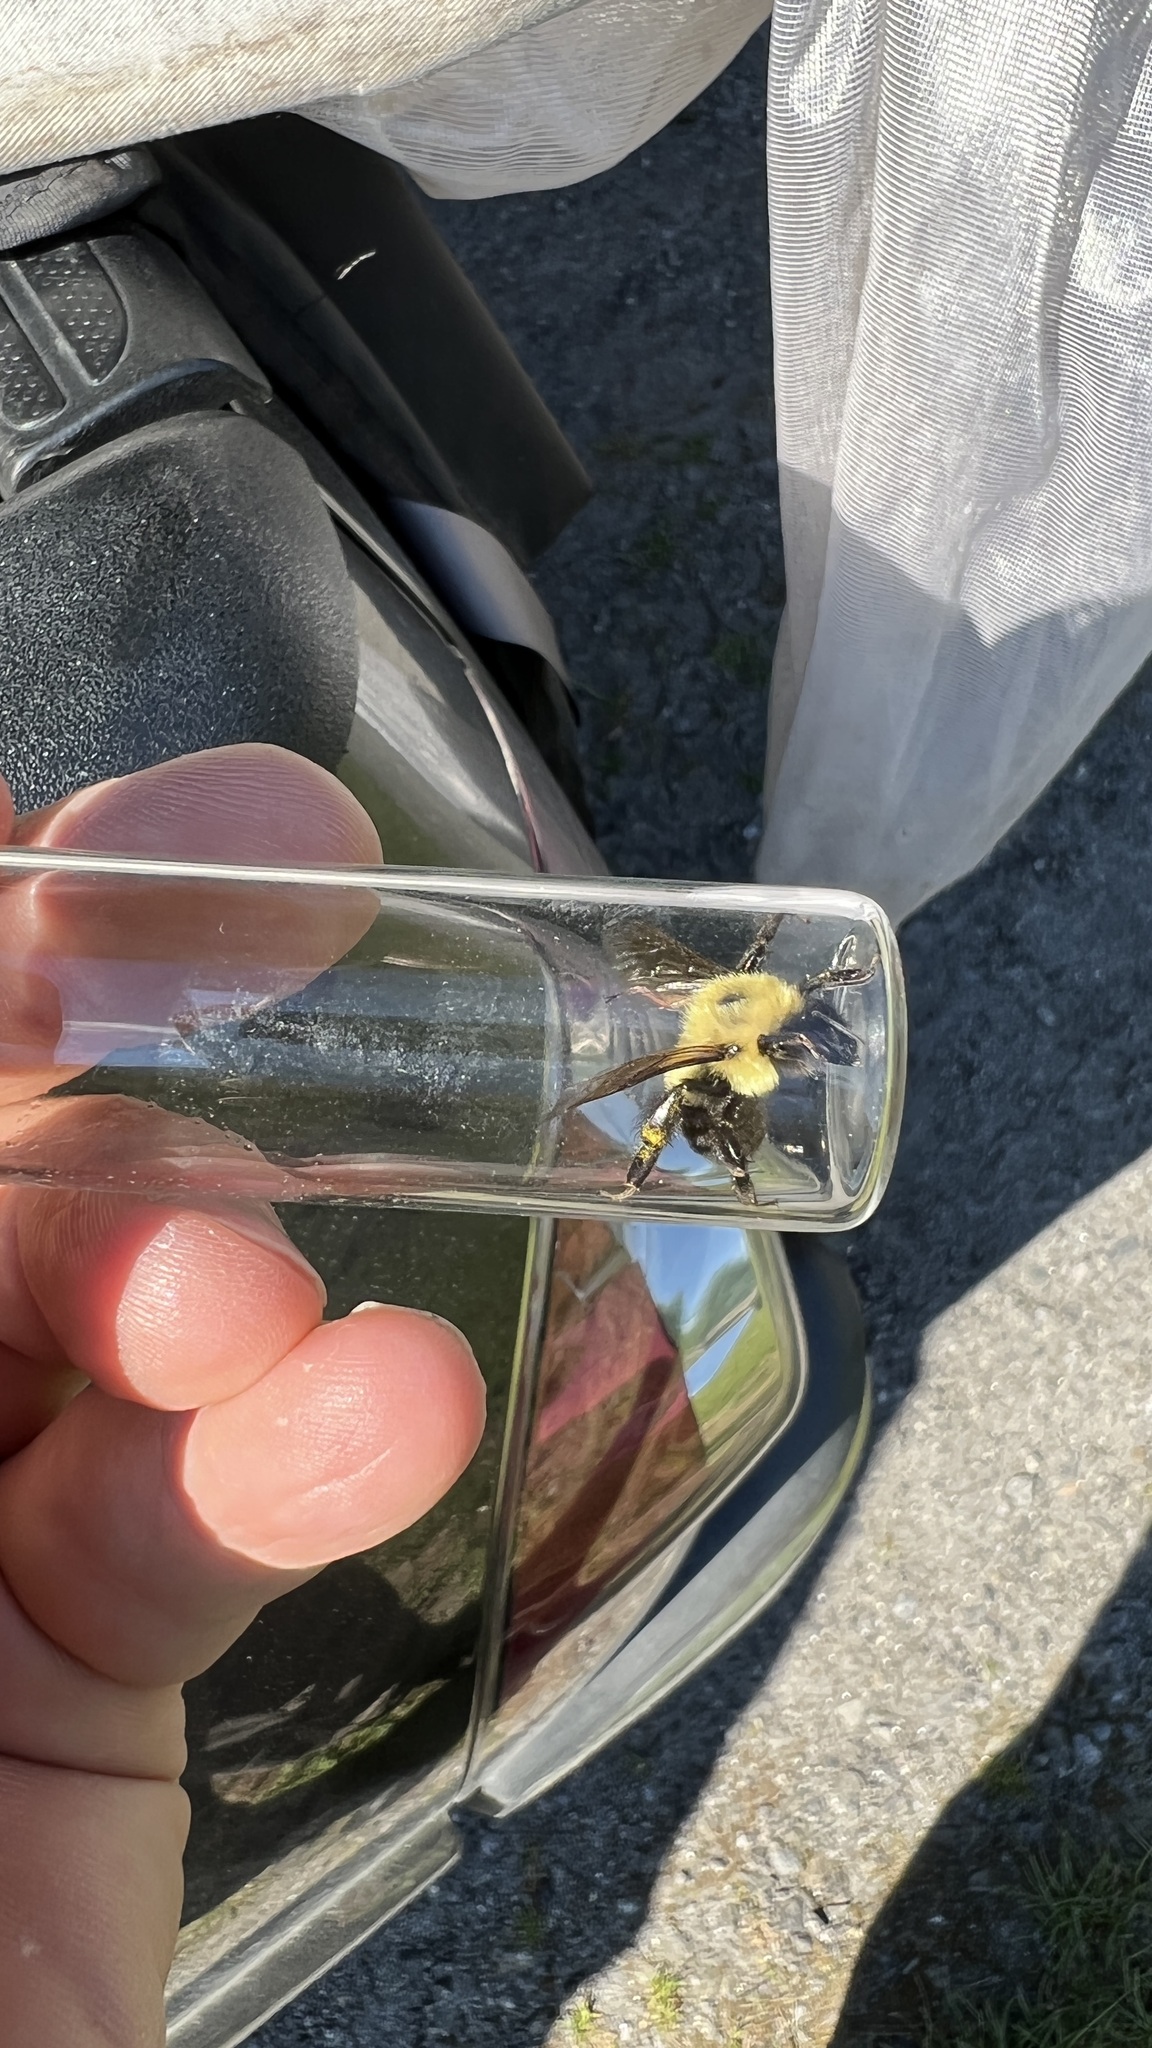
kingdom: Animalia
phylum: Arthropoda
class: Insecta
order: Hymenoptera
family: Apidae
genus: Bombus
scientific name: Bombus bimaculatus
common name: Two-spotted bumble bee
